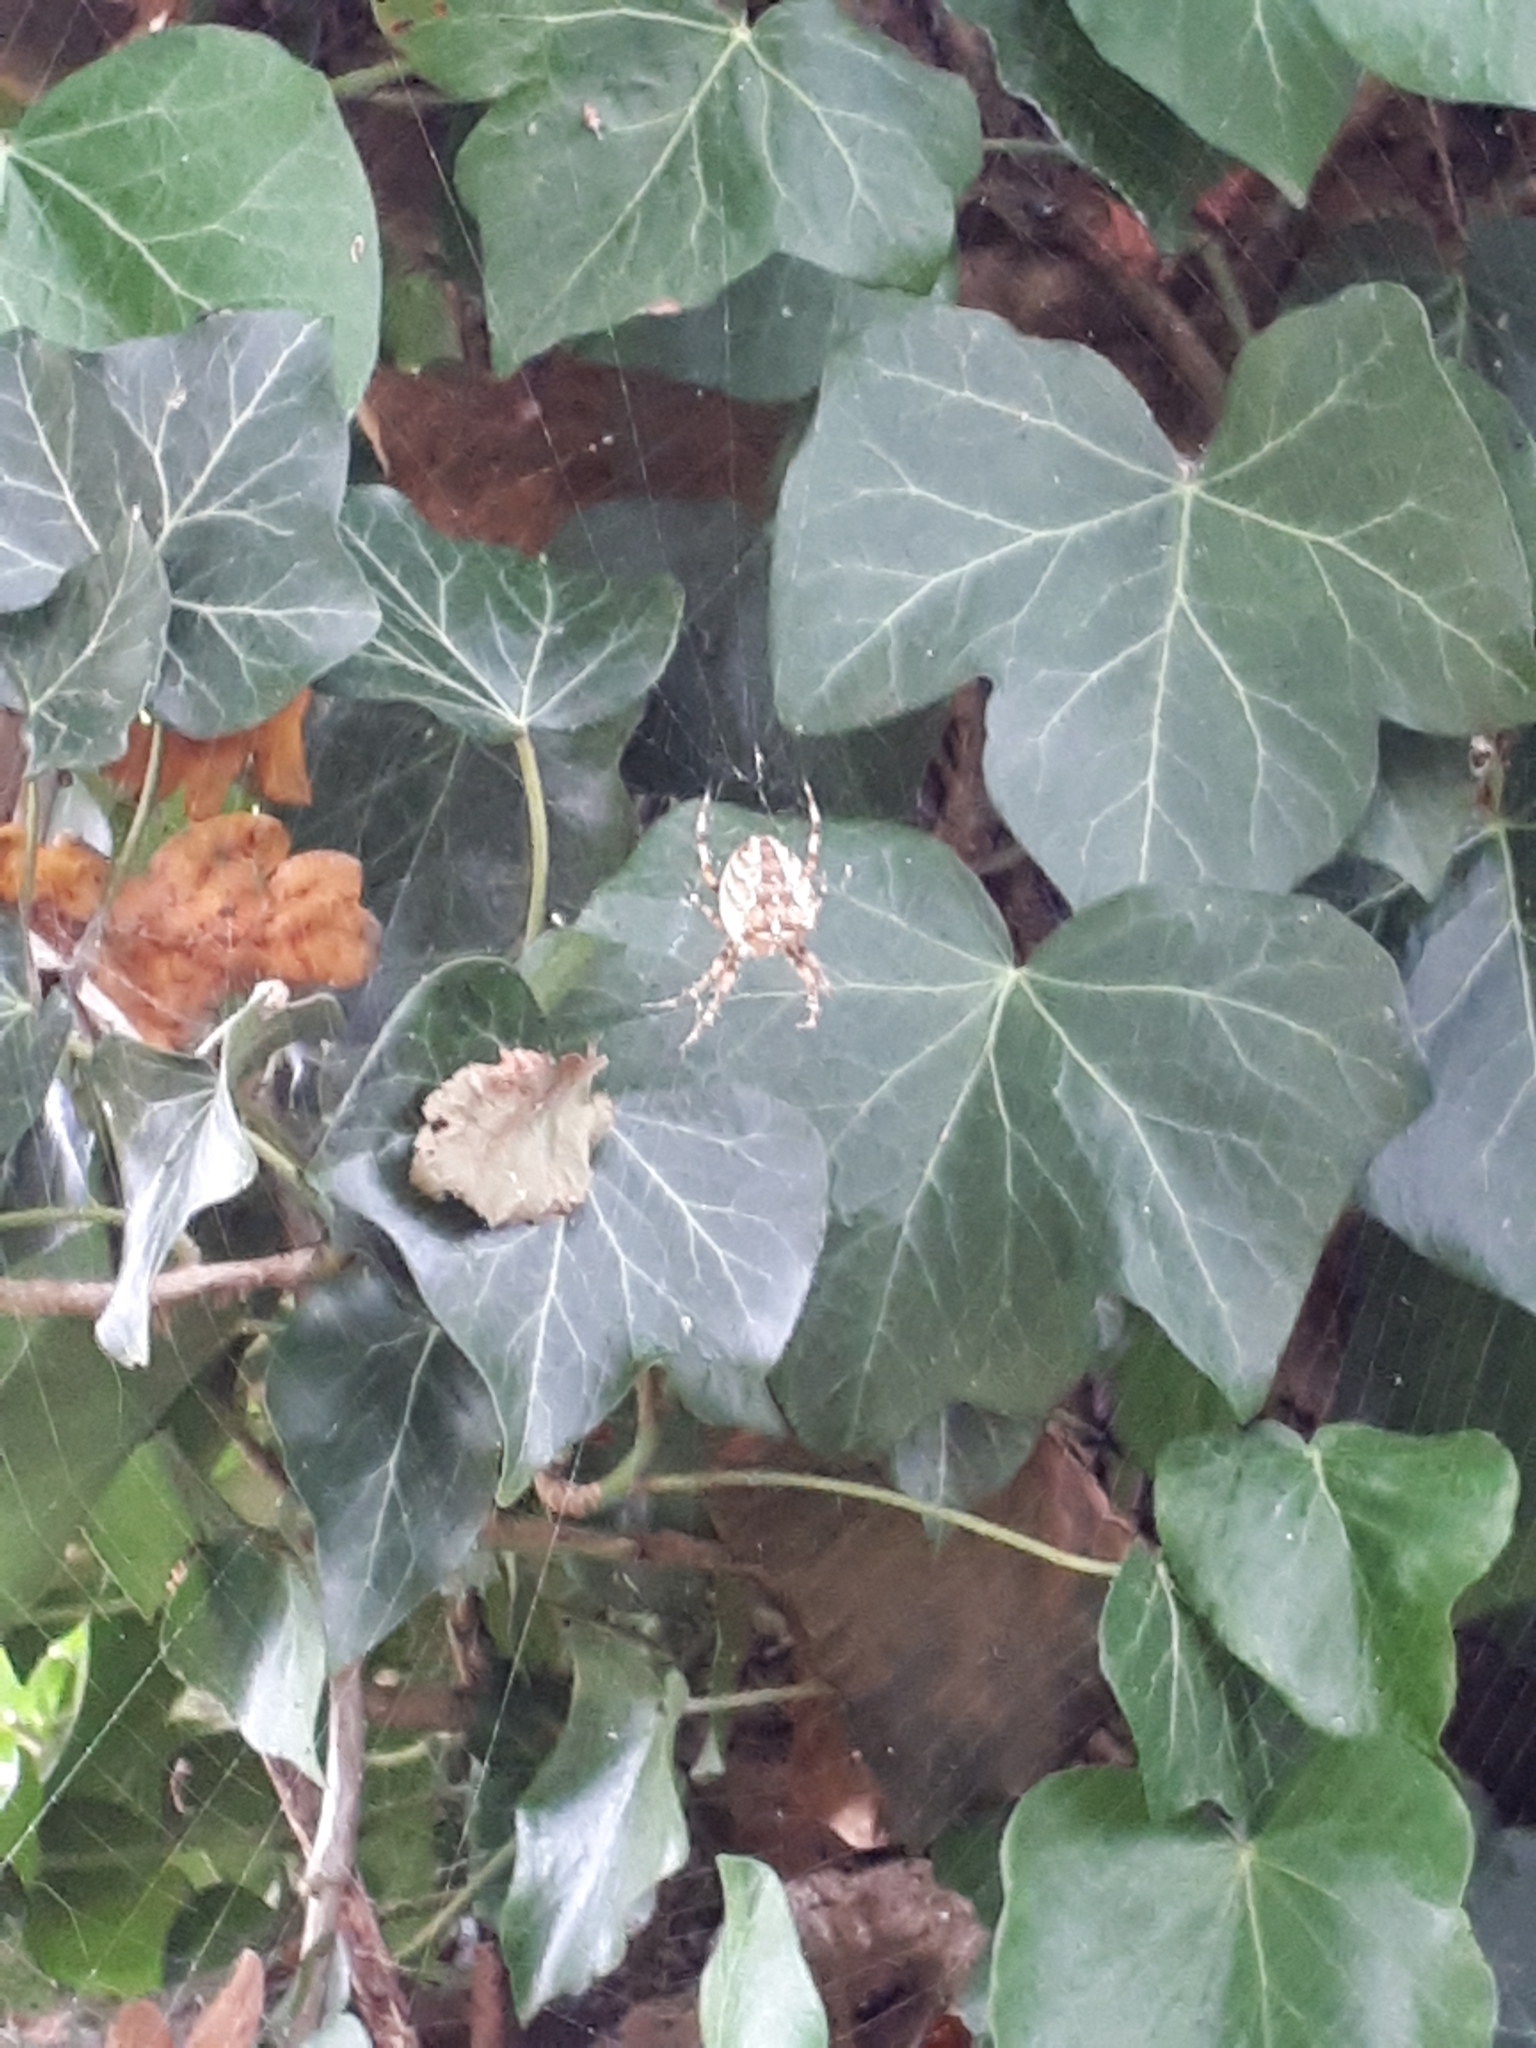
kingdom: Animalia
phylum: Arthropoda
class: Arachnida
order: Araneae
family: Araneidae
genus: Araneus
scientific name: Araneus diadematus
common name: Cross orbweaver
